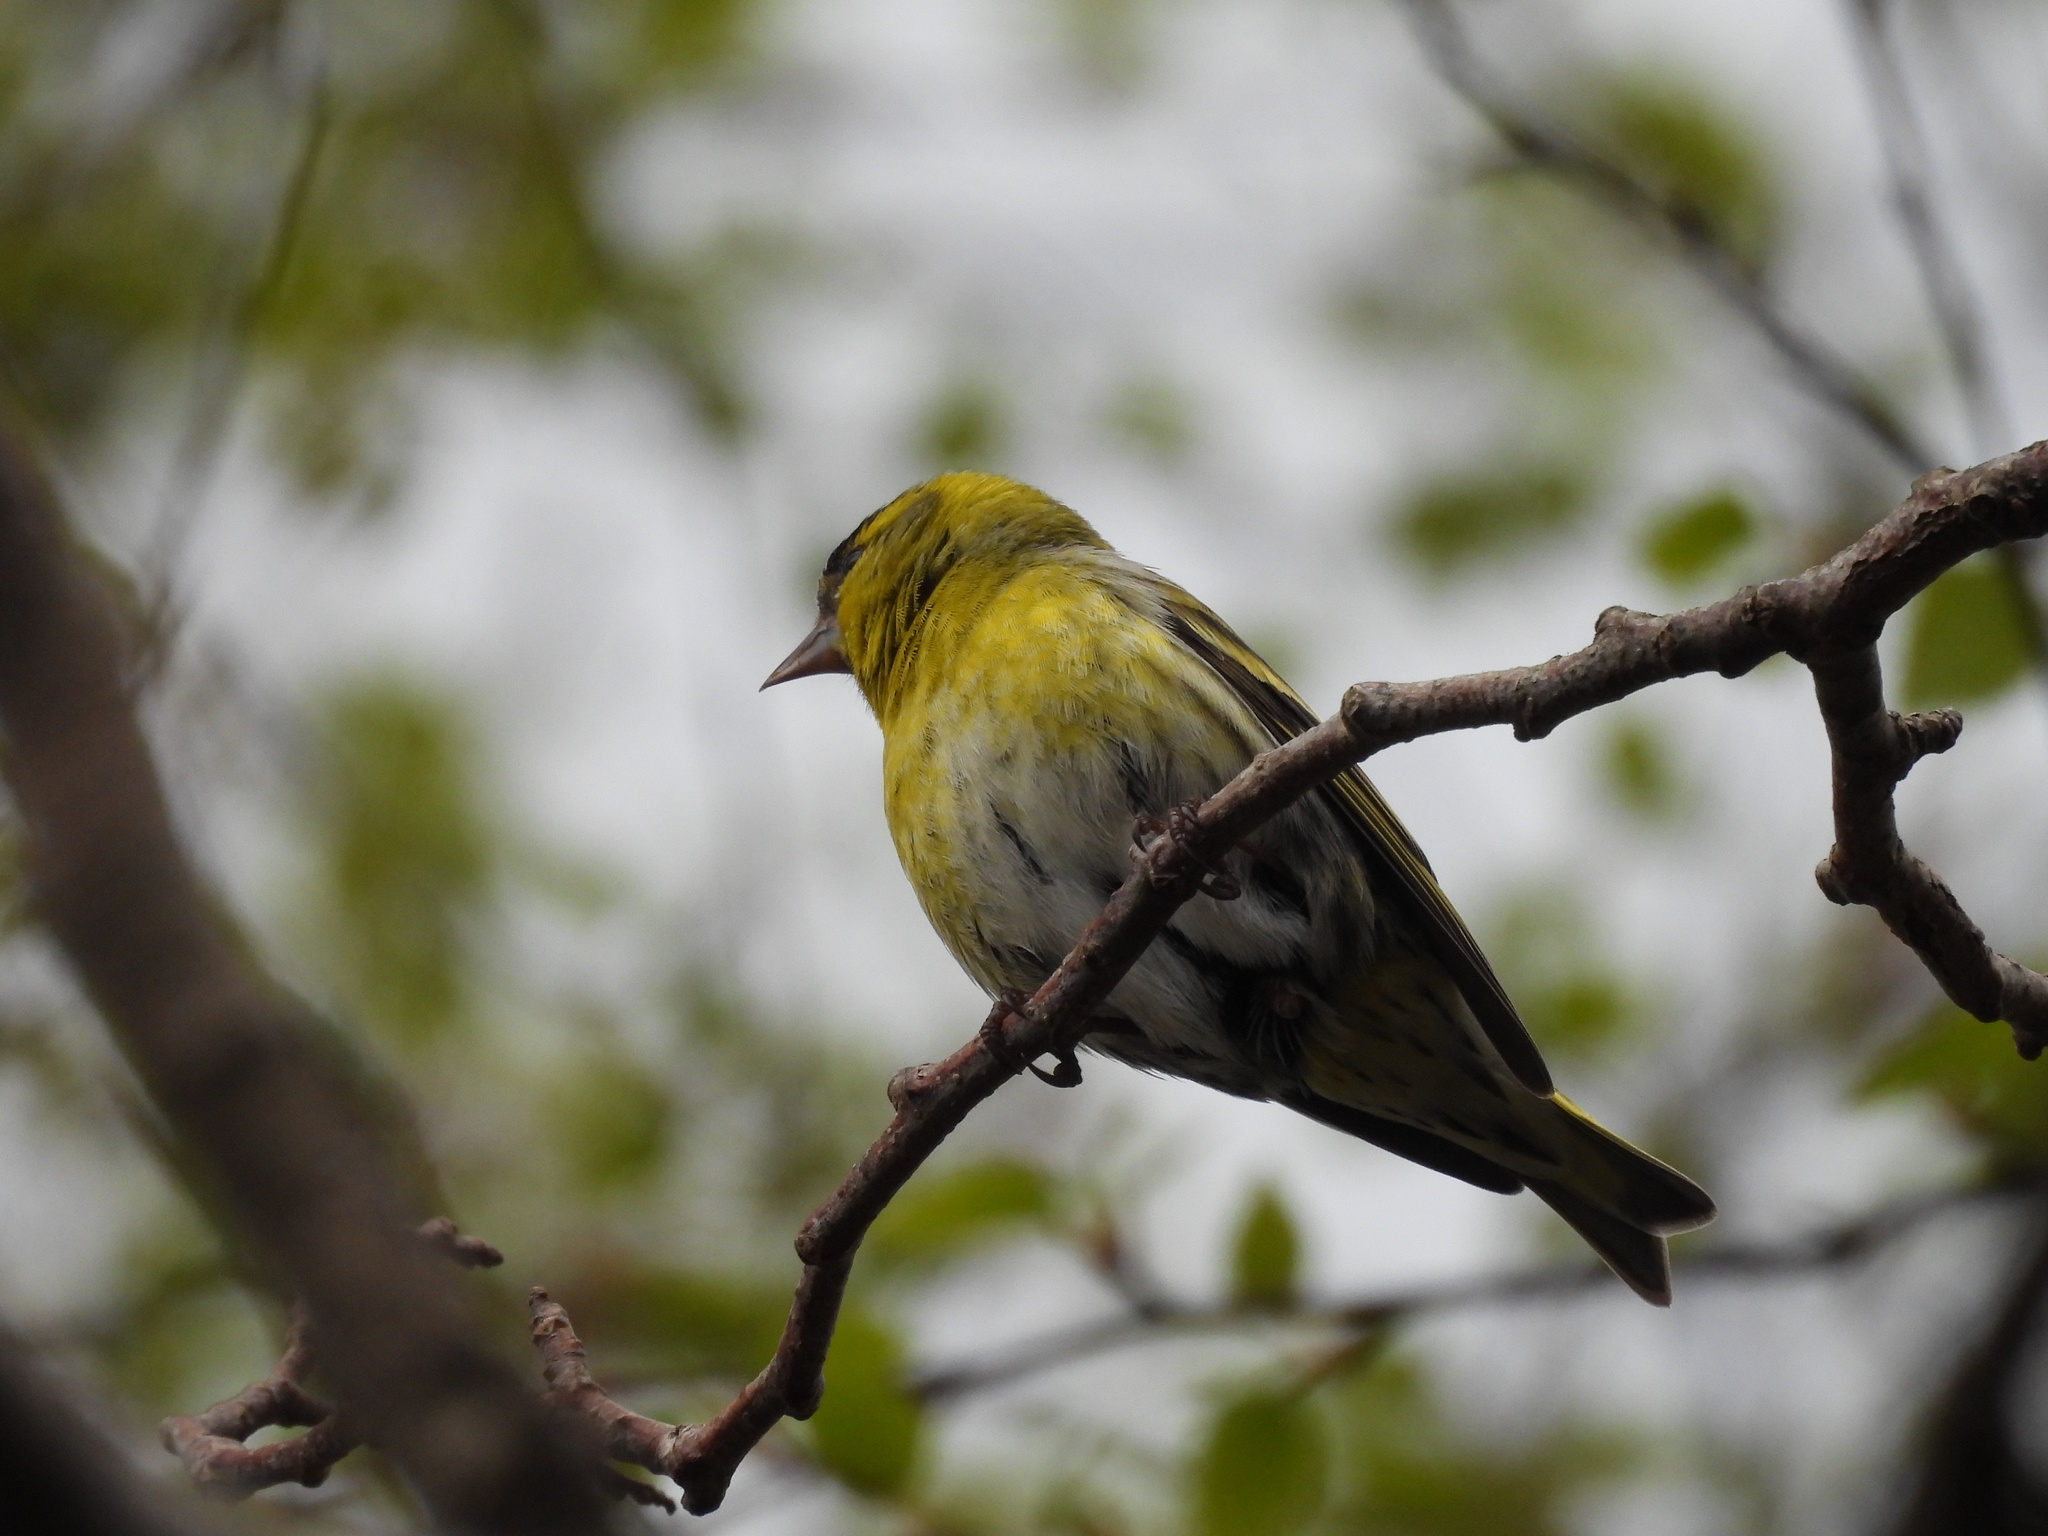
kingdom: Animalia
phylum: Chordata
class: Aves
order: Passeriformes
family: Fringillidae
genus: Spinus
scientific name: Spinus spinus
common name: Eurasian siskin
